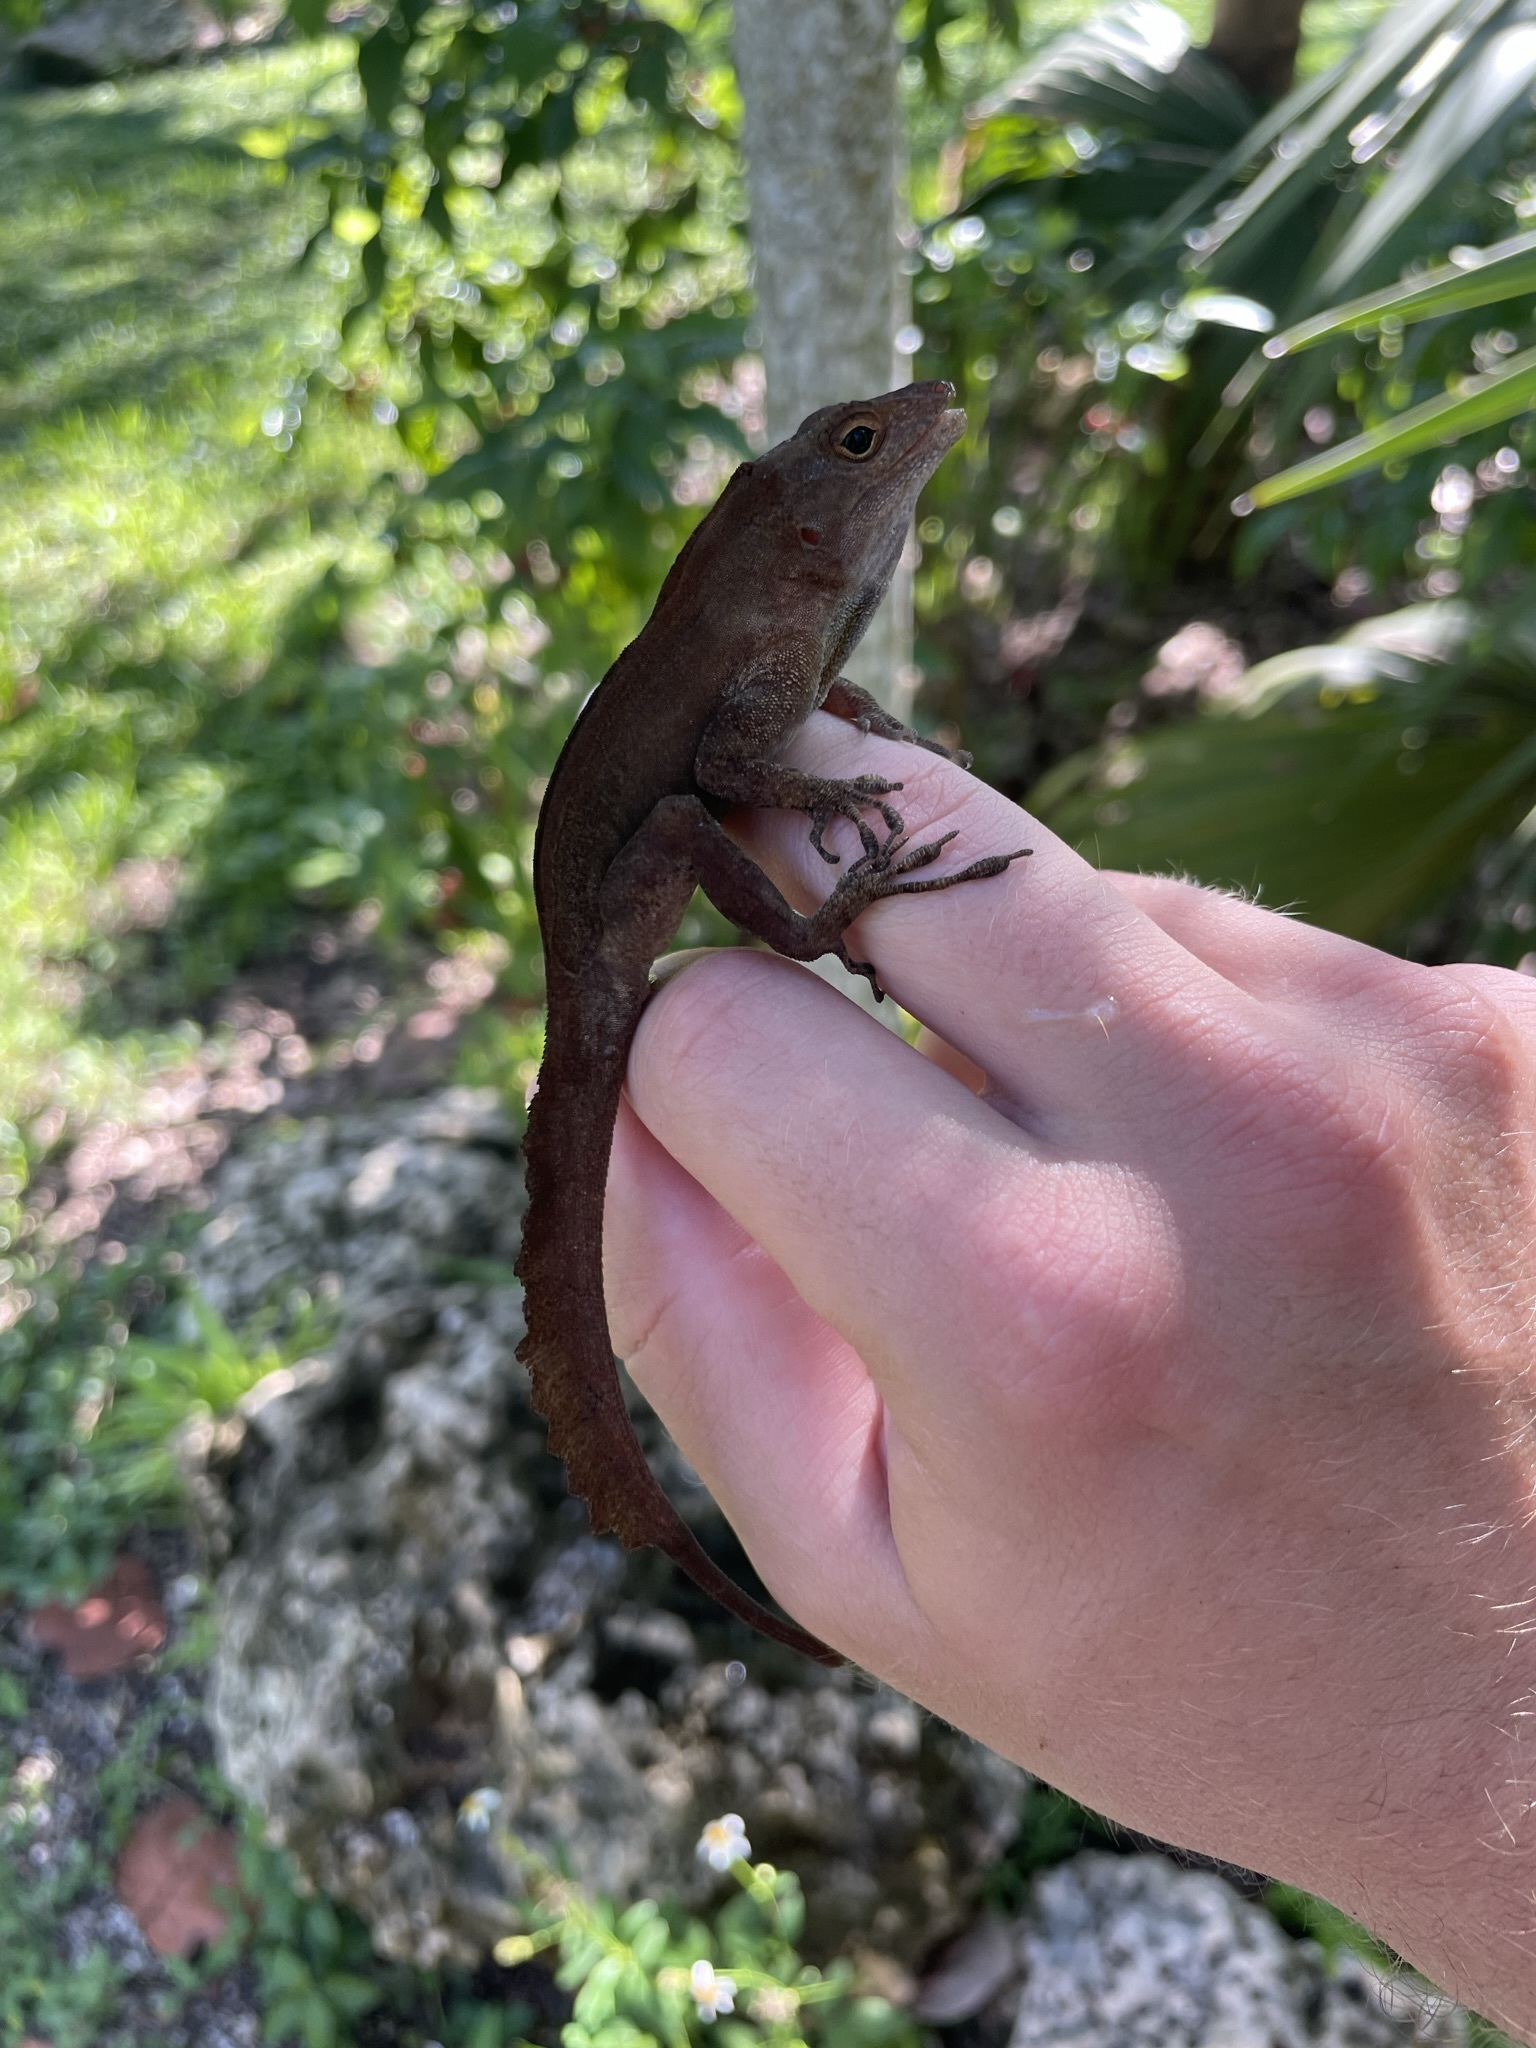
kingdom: Animalia
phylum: Chordata
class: Squamata
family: Dactyloidae
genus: Anolis
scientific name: Anolis cristatellus
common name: Crested anole
